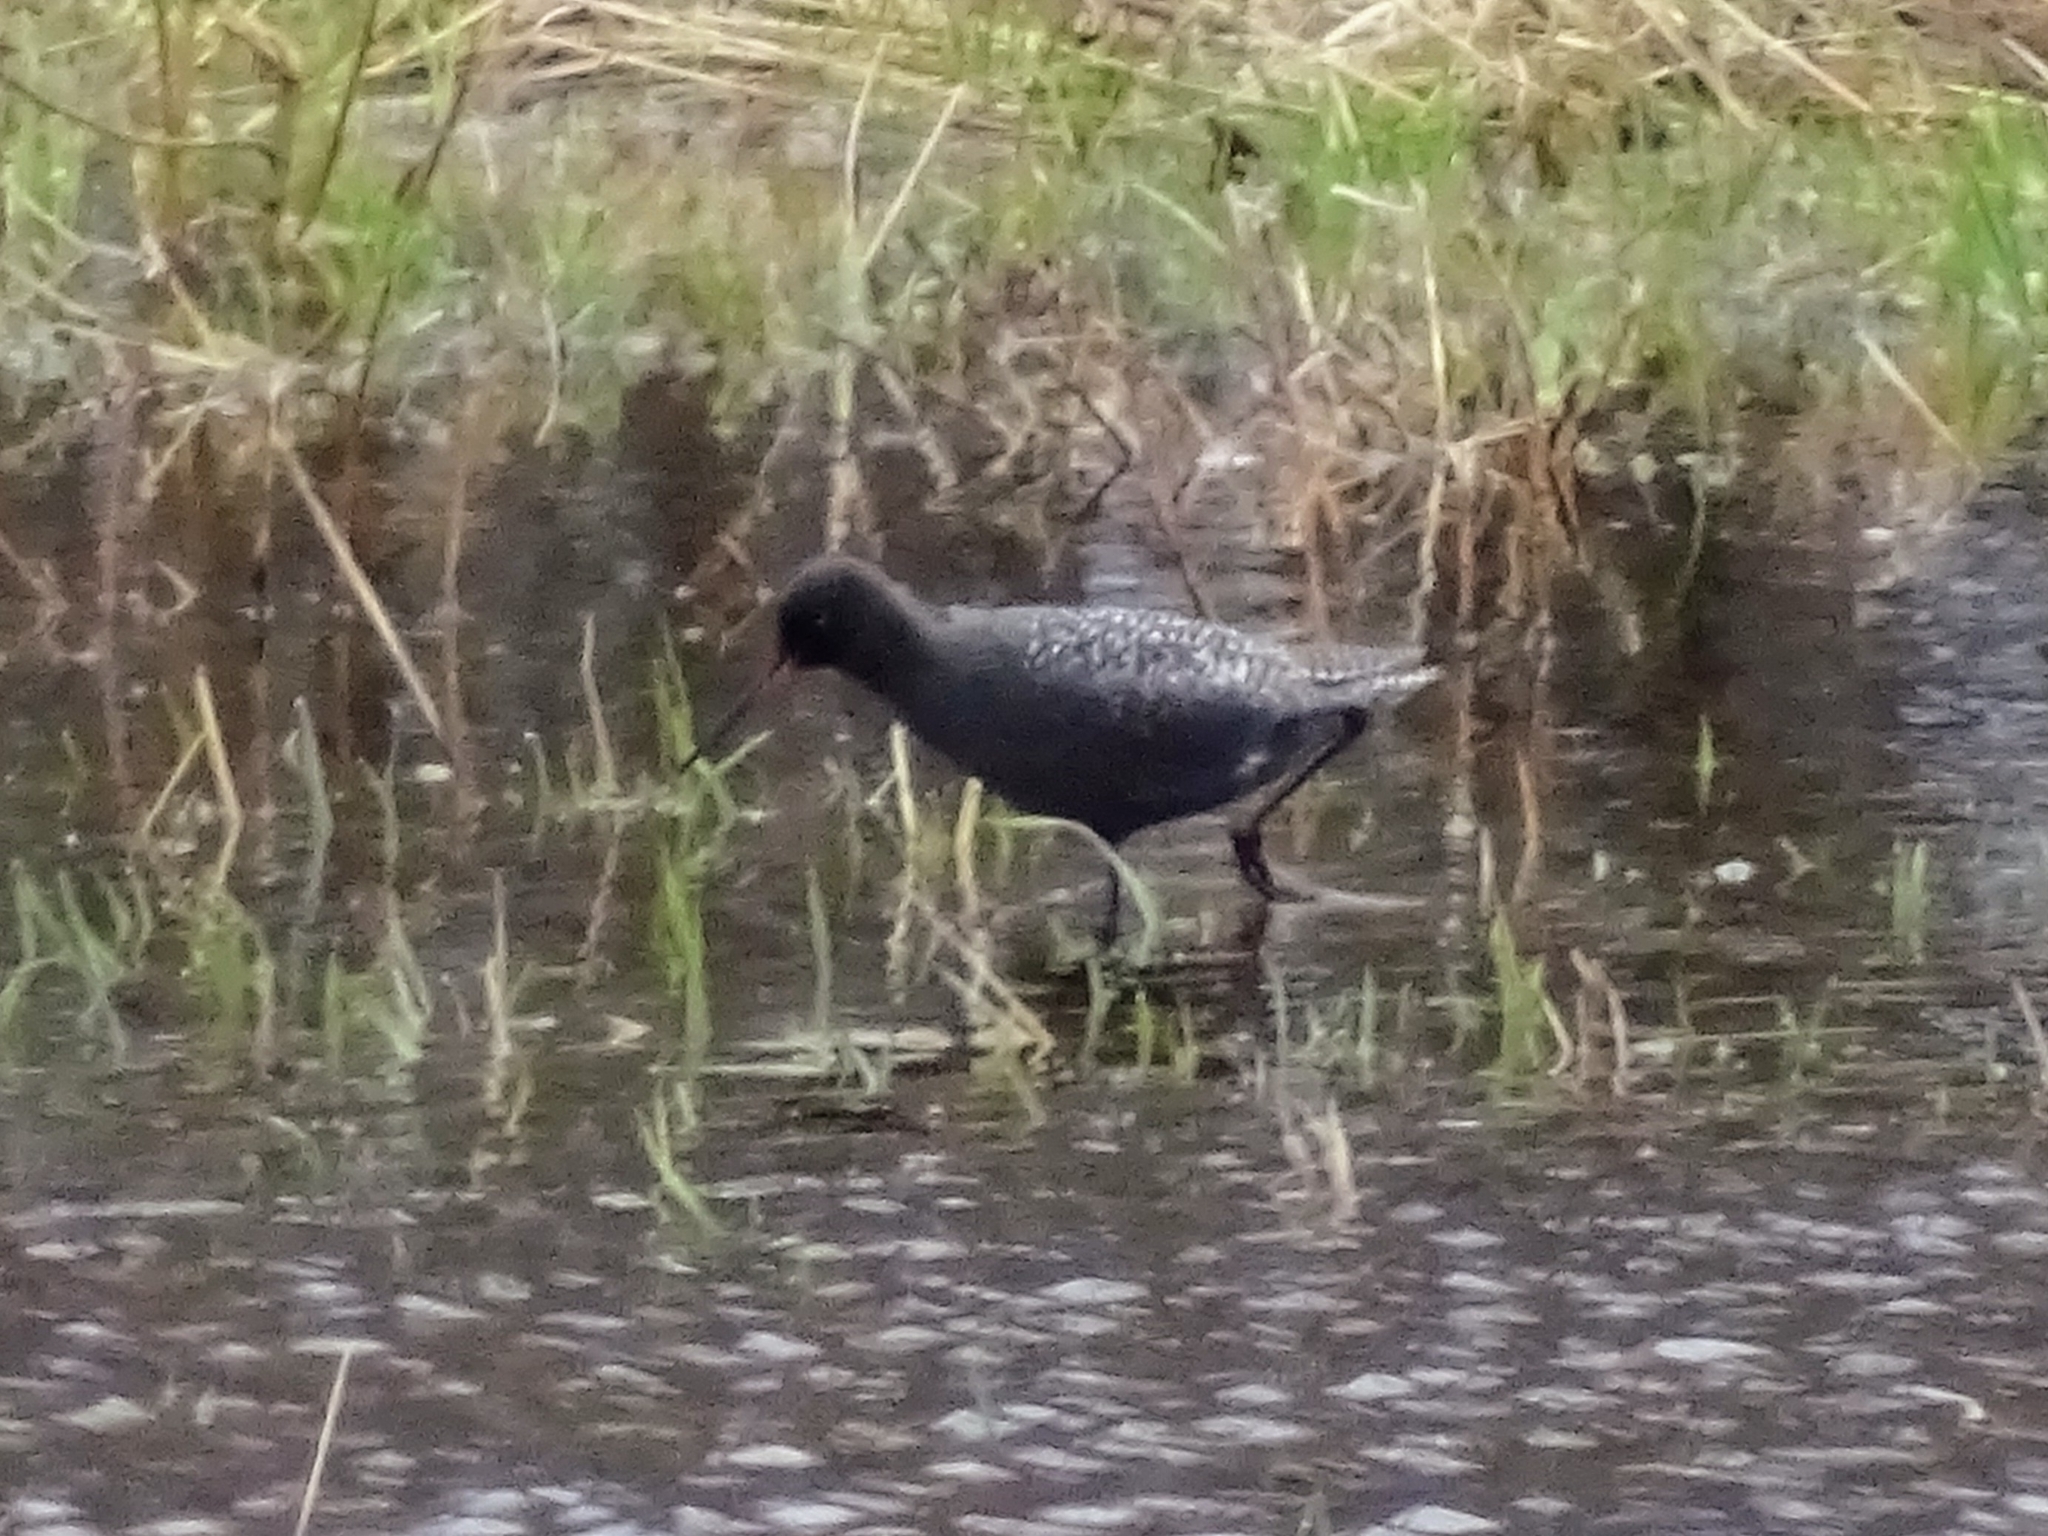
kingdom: Animalia
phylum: Chordata
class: Aves
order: Charadriiformes
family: Scolopacidae
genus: Tringa
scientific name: Tringa erythropus
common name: Spotted redshank
